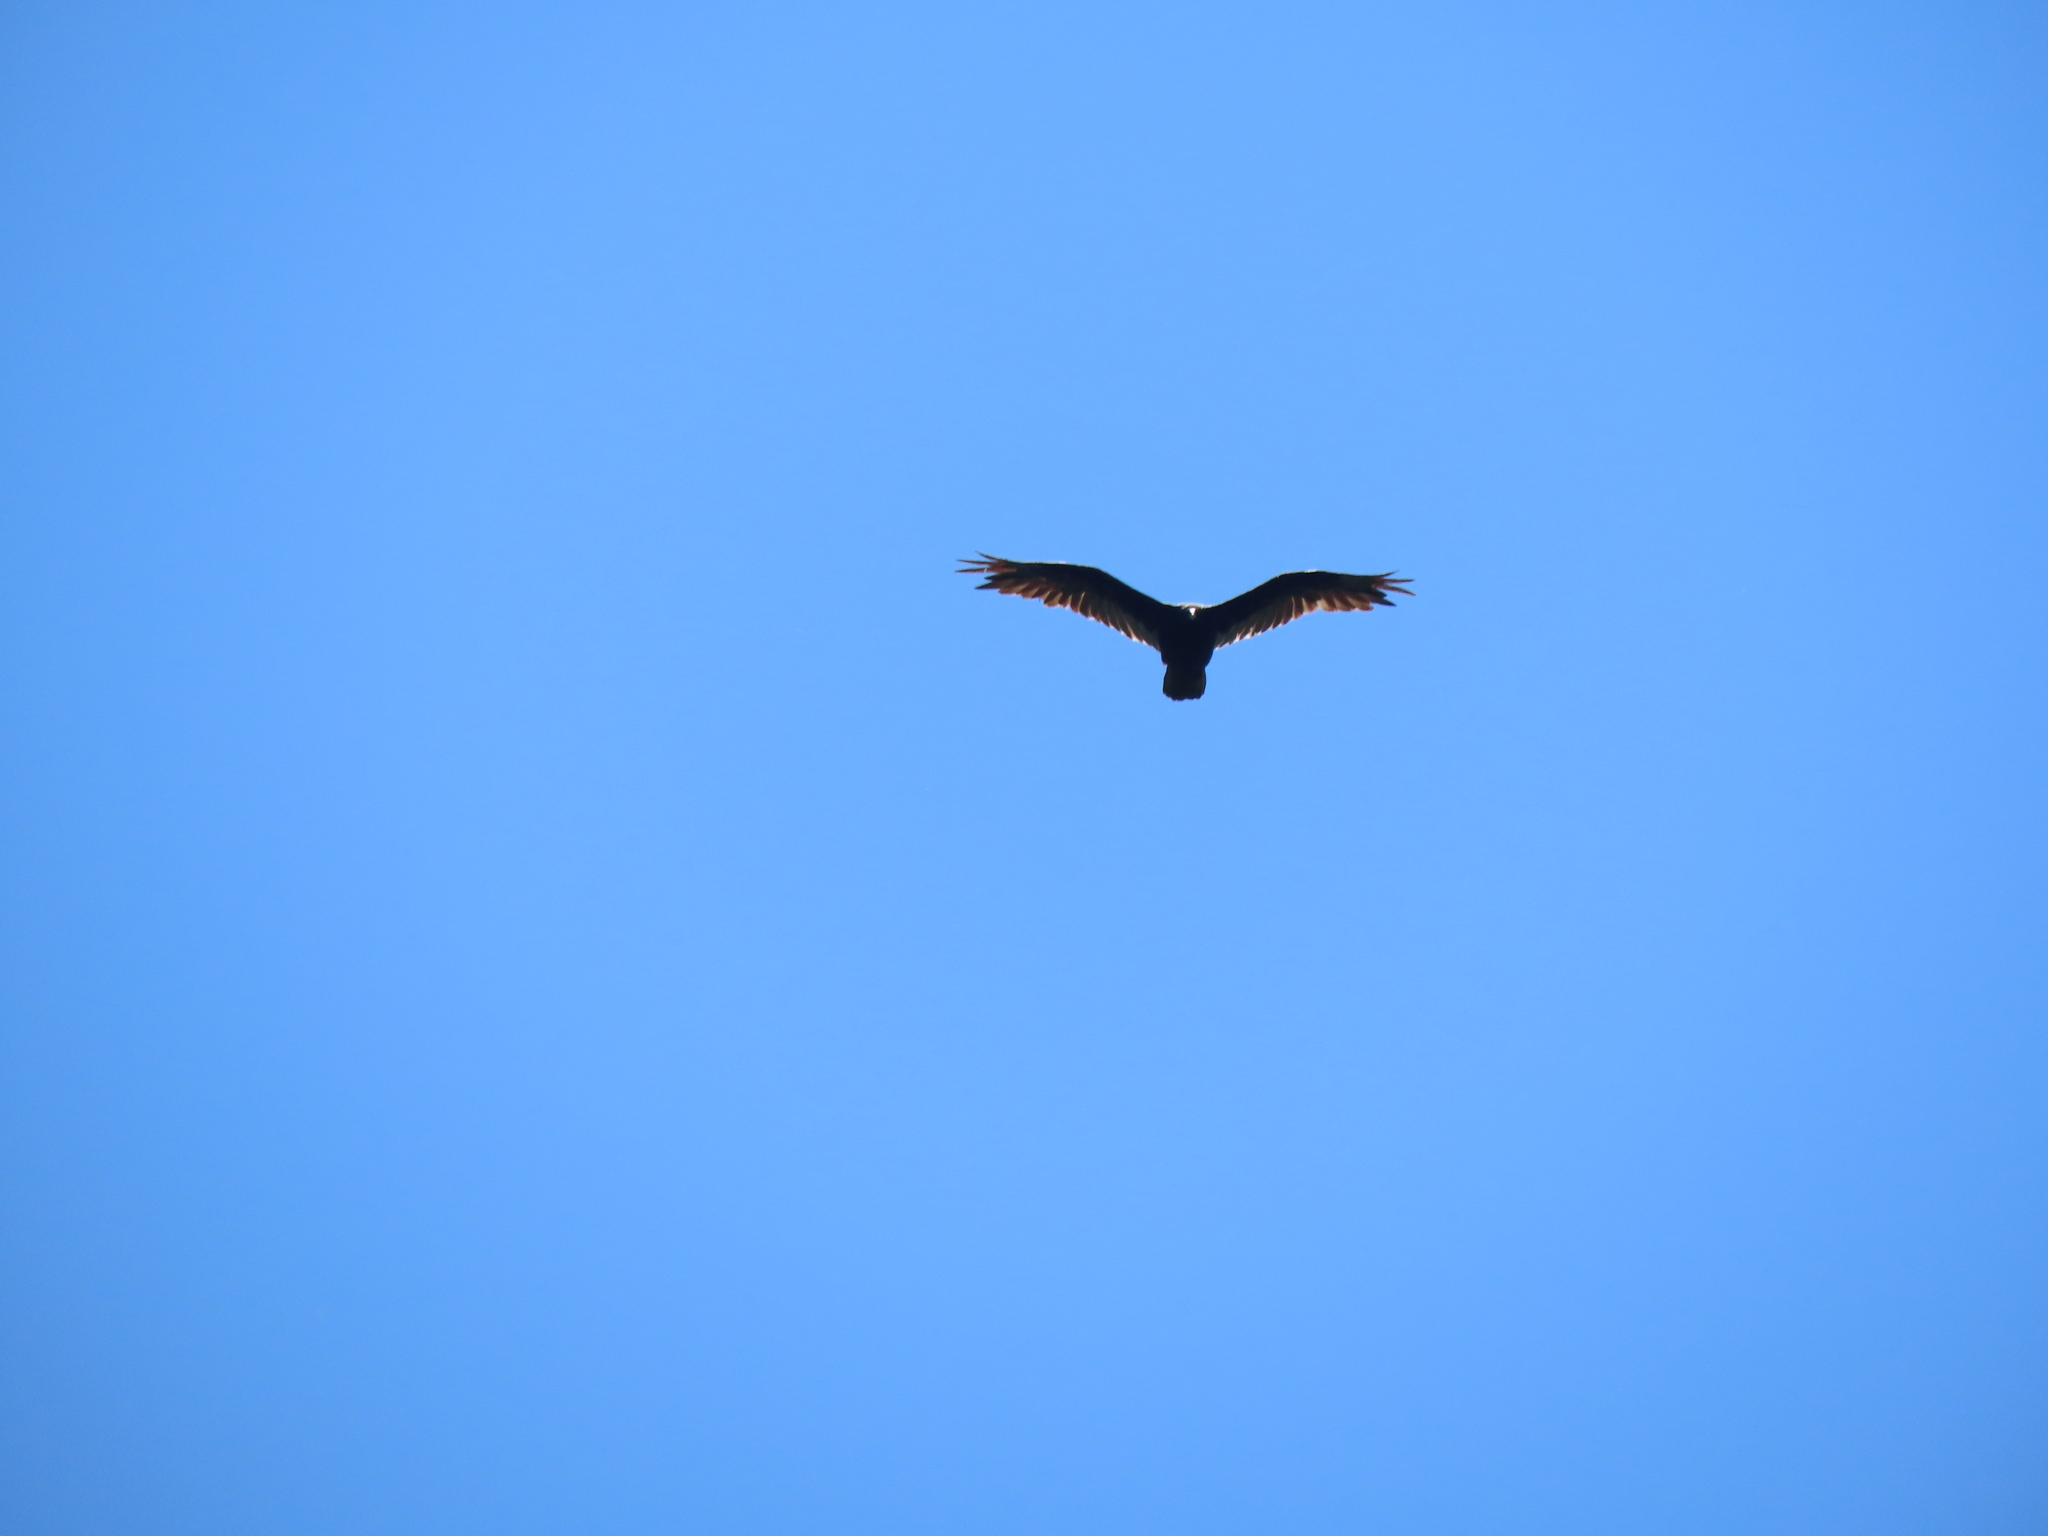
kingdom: Animalia
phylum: Chordata
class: Aves
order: Accipitriformes
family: Cathartidae
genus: Cathartes
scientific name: Cathartes aura
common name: Turkey vulture
